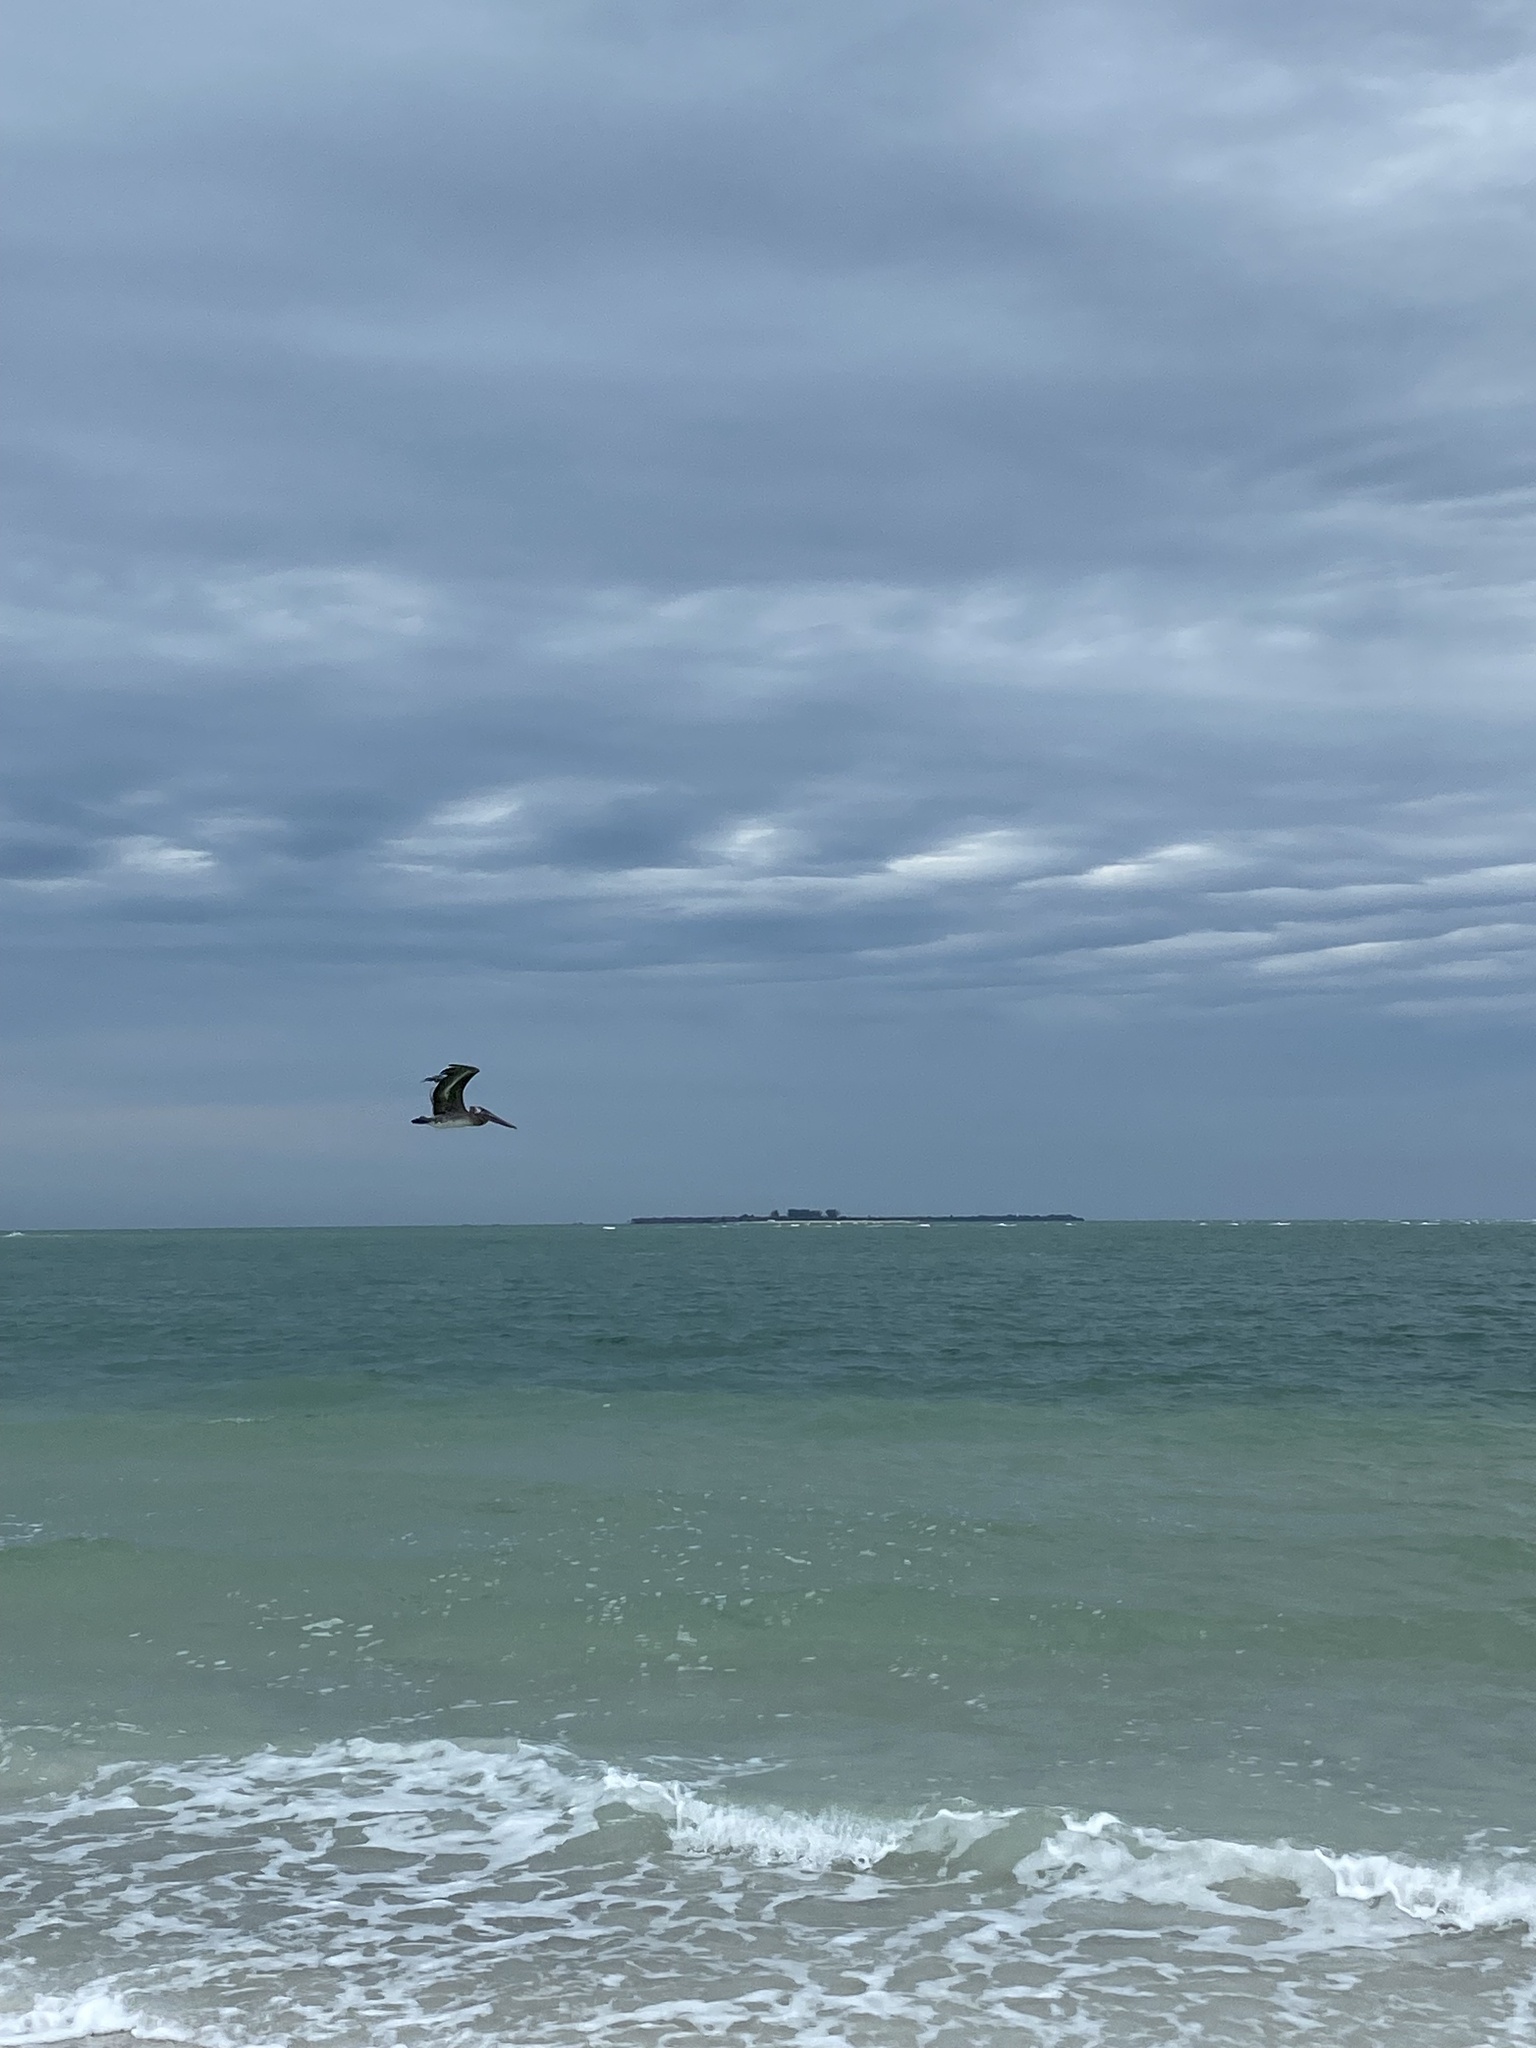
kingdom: Animalia
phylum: Chordata
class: Aves
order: Pelecaniformes
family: Pelecanidae
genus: Pelecanus
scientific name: Pelecanus occidentalis
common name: Brown pelican
